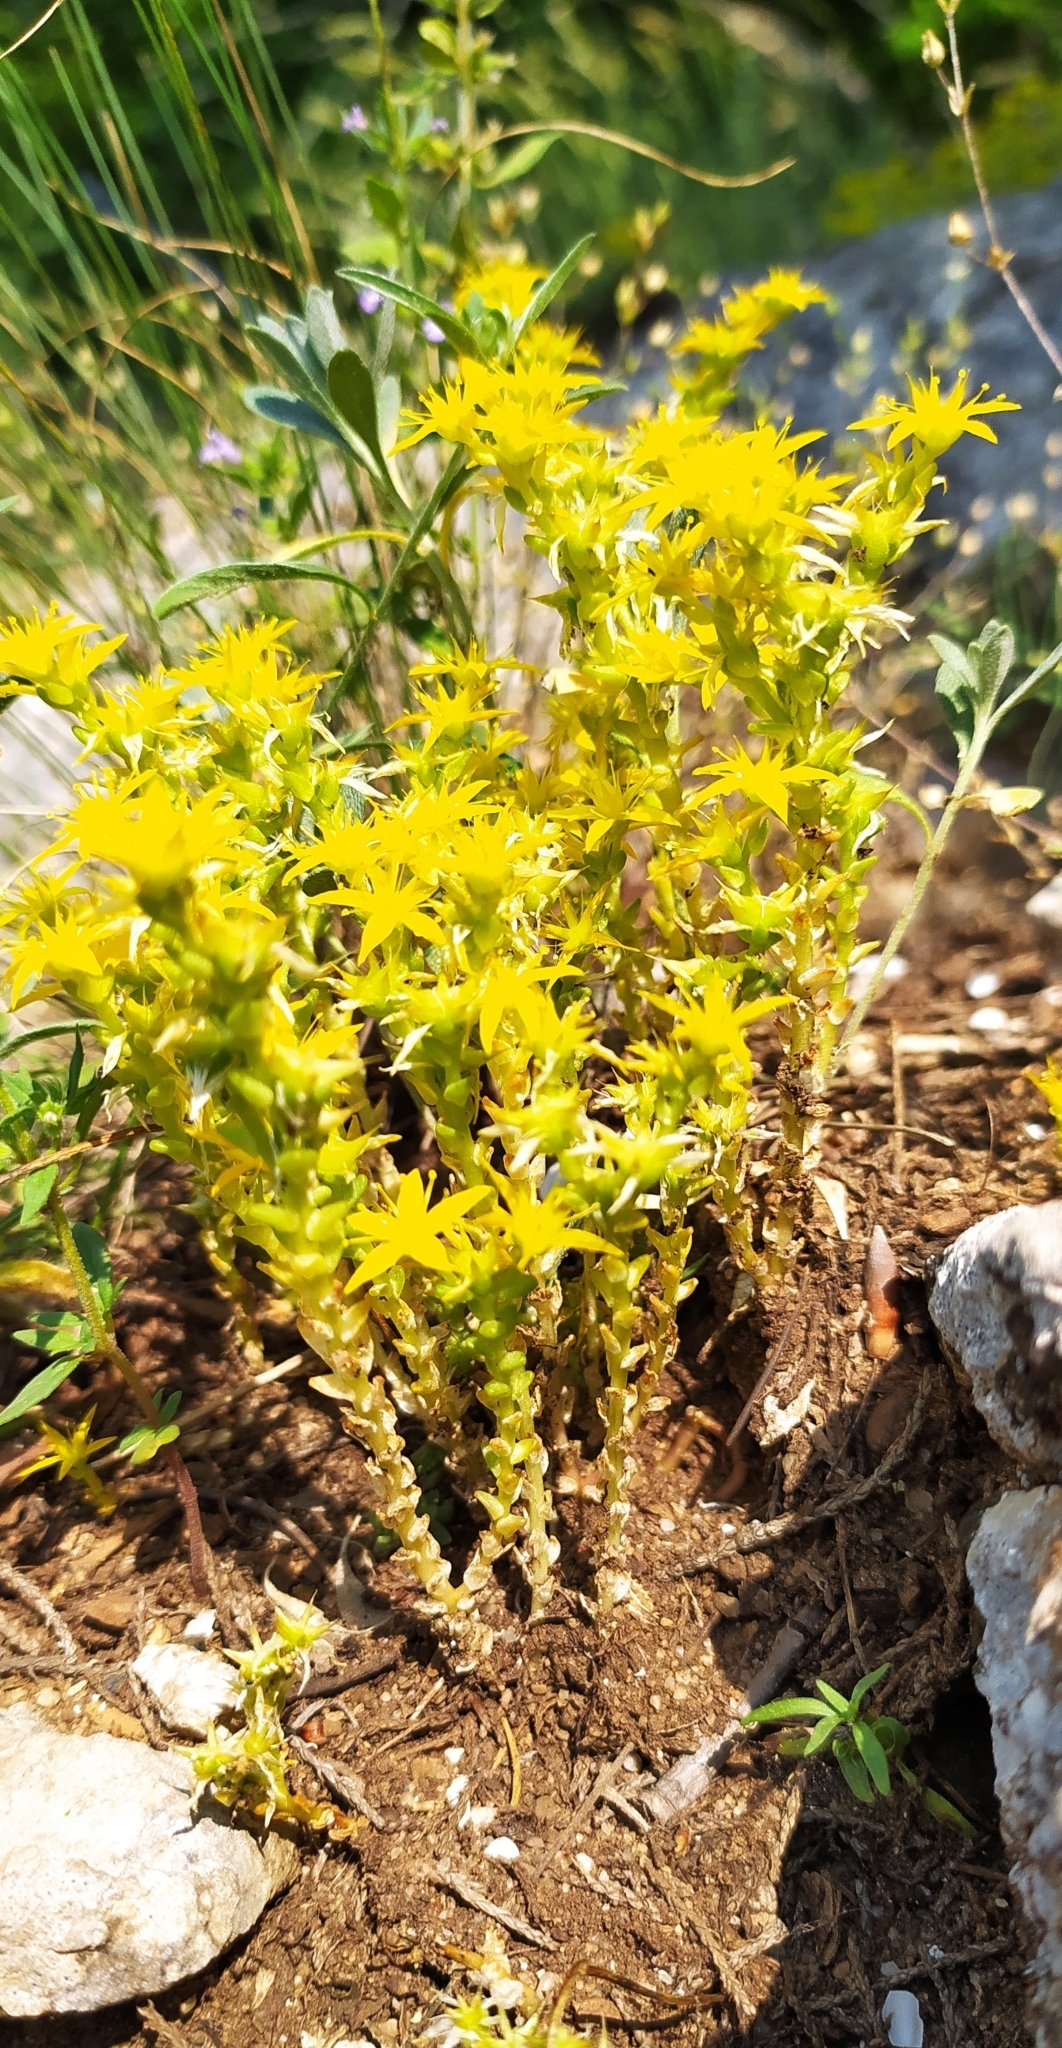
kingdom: Plantae
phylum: Tracheophyta
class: Magnoliopsida
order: Saxifragales
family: Crassulaceae
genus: Sedum
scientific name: Sedum acre
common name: Biting stonecrop
